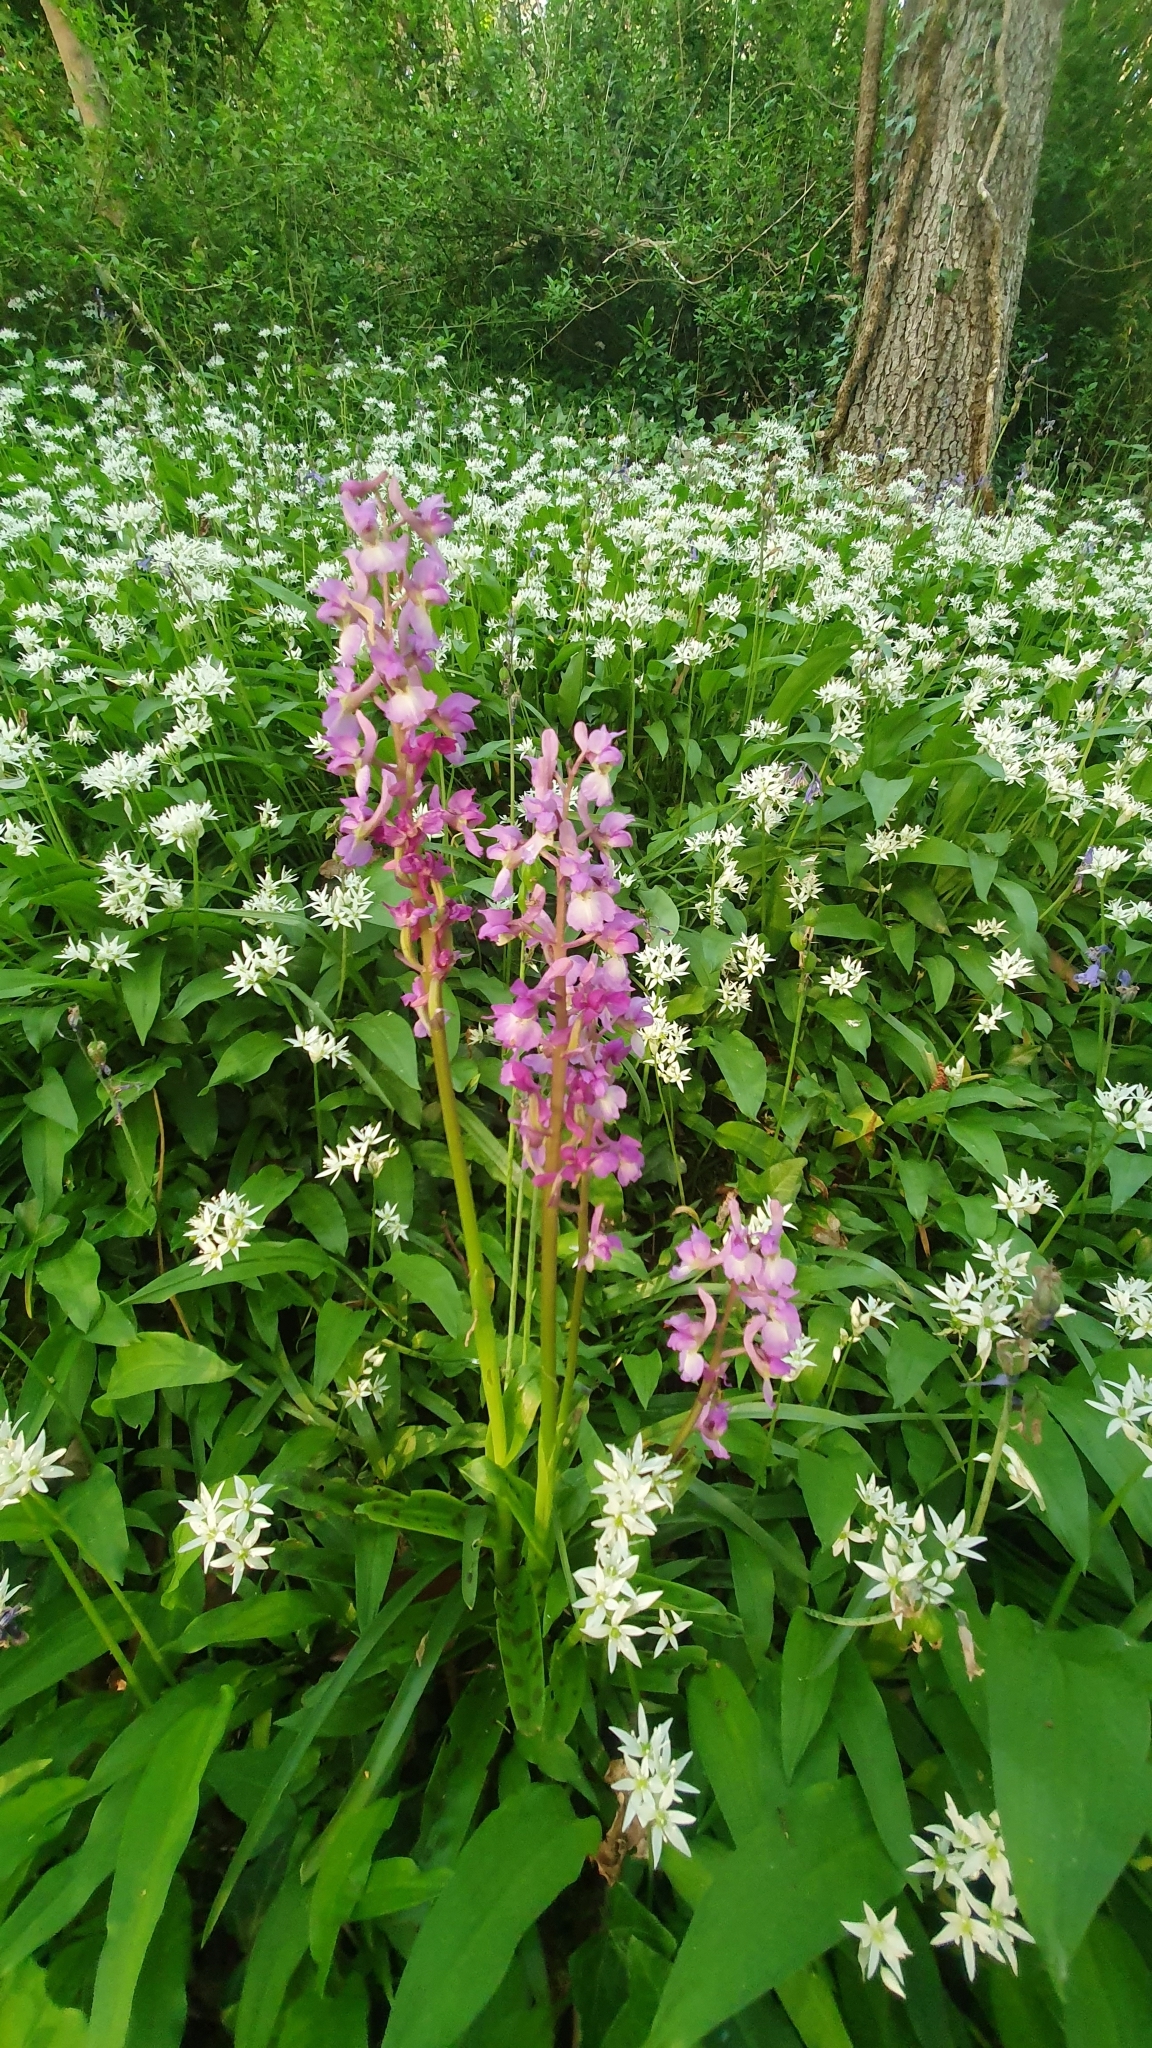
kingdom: Plantae
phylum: Tracheophyta
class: Liliopsida
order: Asparagales
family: Orchidaceae
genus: Orchis
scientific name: Orchis mascula
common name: Early-purple orchid
